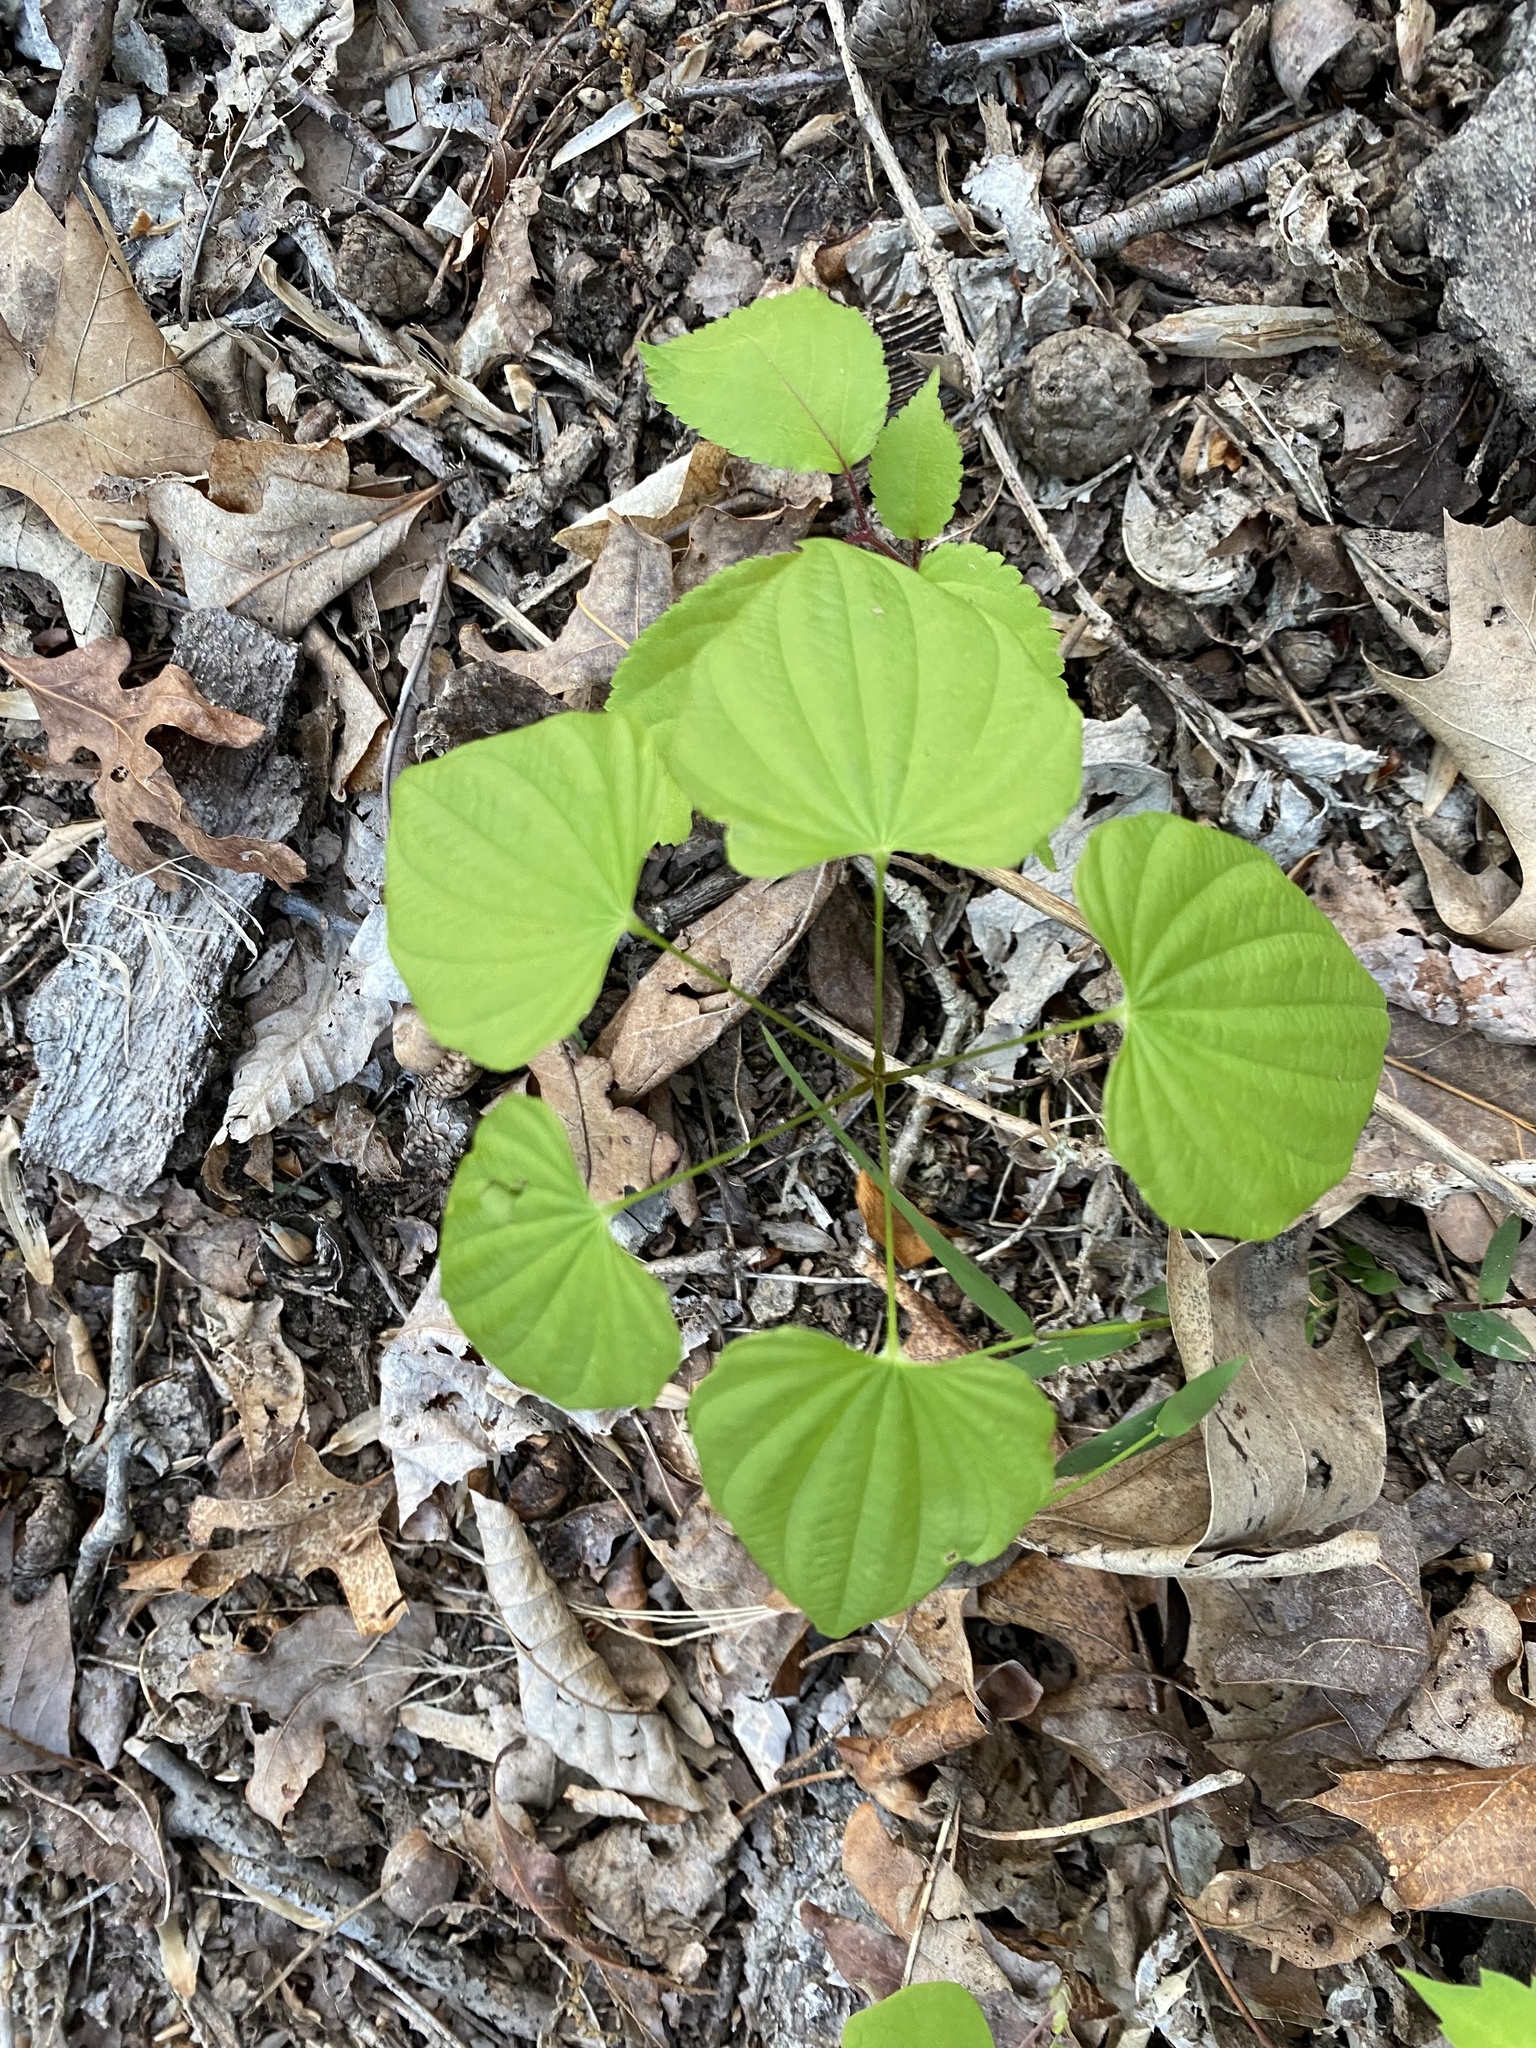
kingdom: Plantae
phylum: Tracheophyta
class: Liliopsida
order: Dioscoreales
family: Dioscoreaceae
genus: Dioscorea
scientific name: Dioscorea villosa
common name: Wild yam
